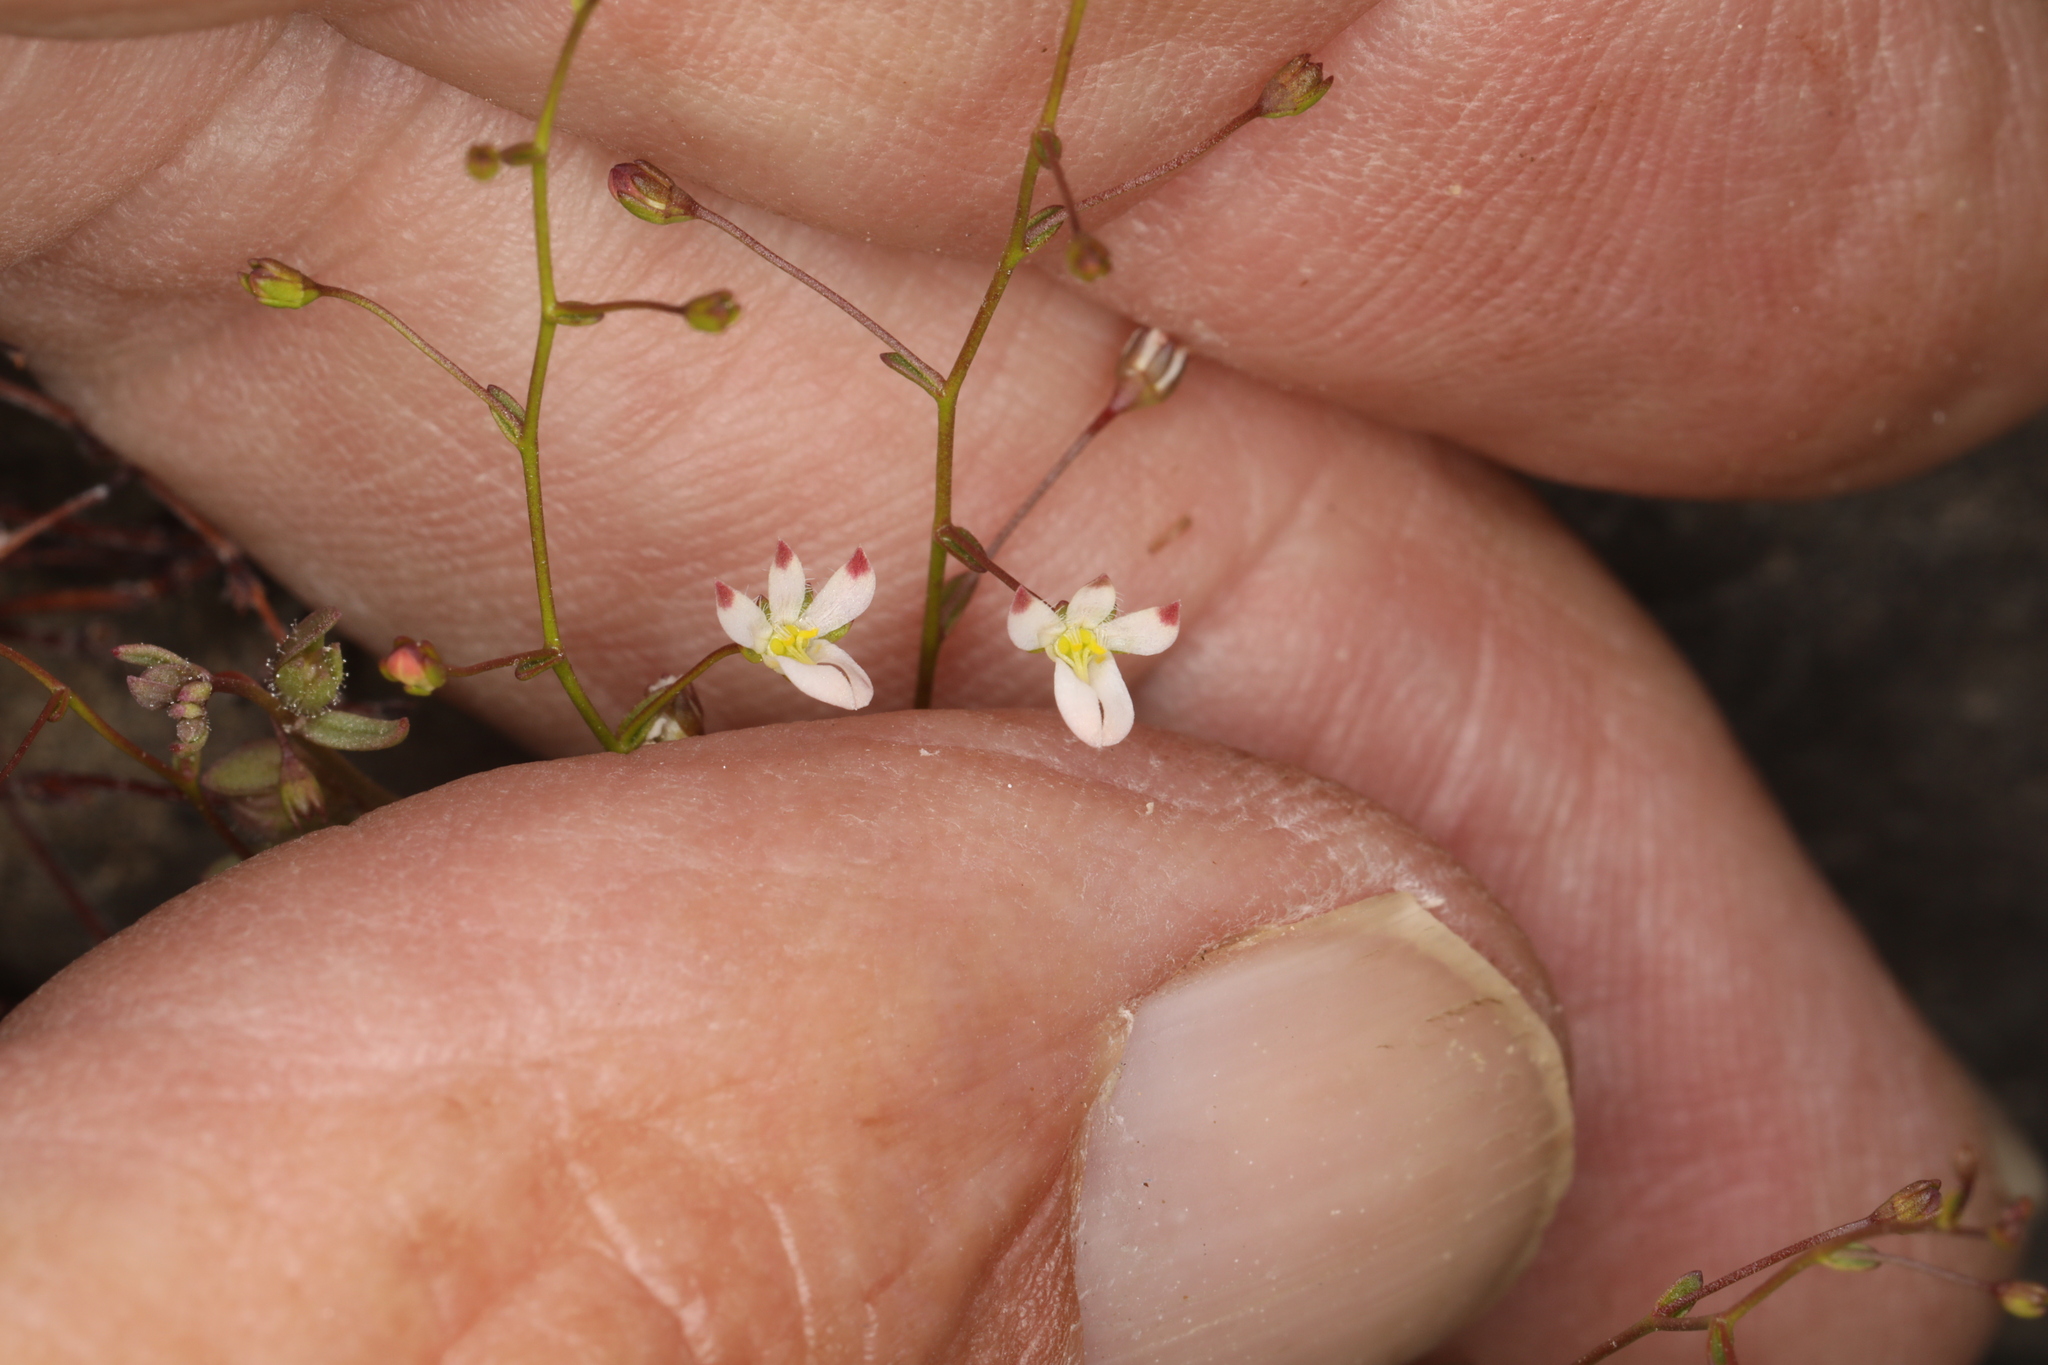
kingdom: Plantae
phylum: Tracheophyta
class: Magnoliopsida
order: Asterales
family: Campanulaceae
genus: Nemacladus
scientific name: Nemacladus orientalis
